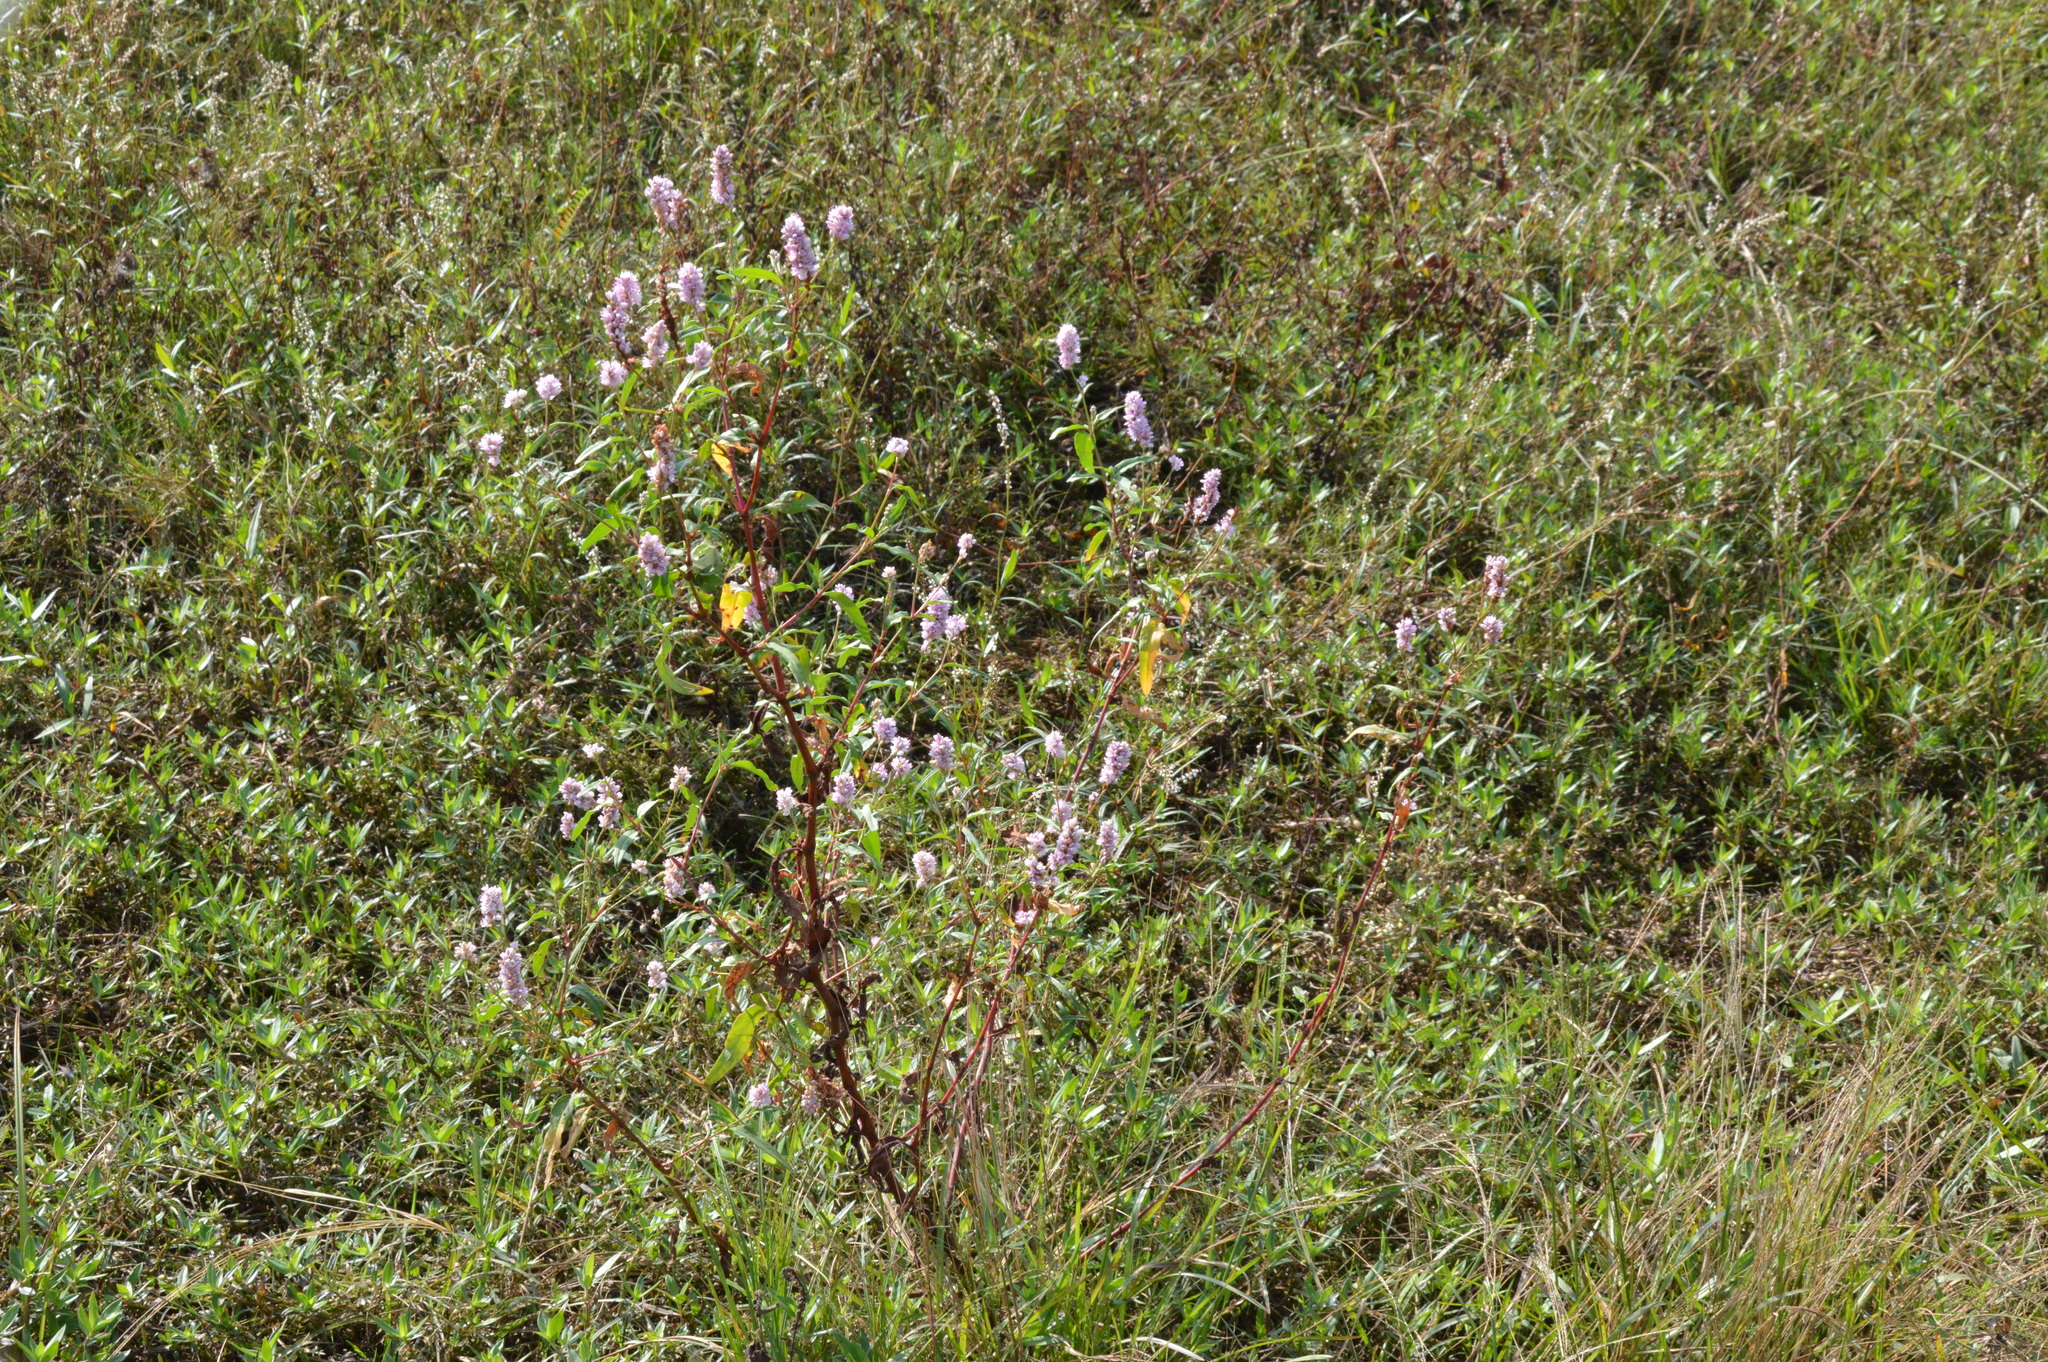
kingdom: Plantae
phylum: Tracheophyta
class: Magnoliopsida
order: Caryophyllales
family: Polygonaceae
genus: Persicaria
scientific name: Persicaria bicornis
